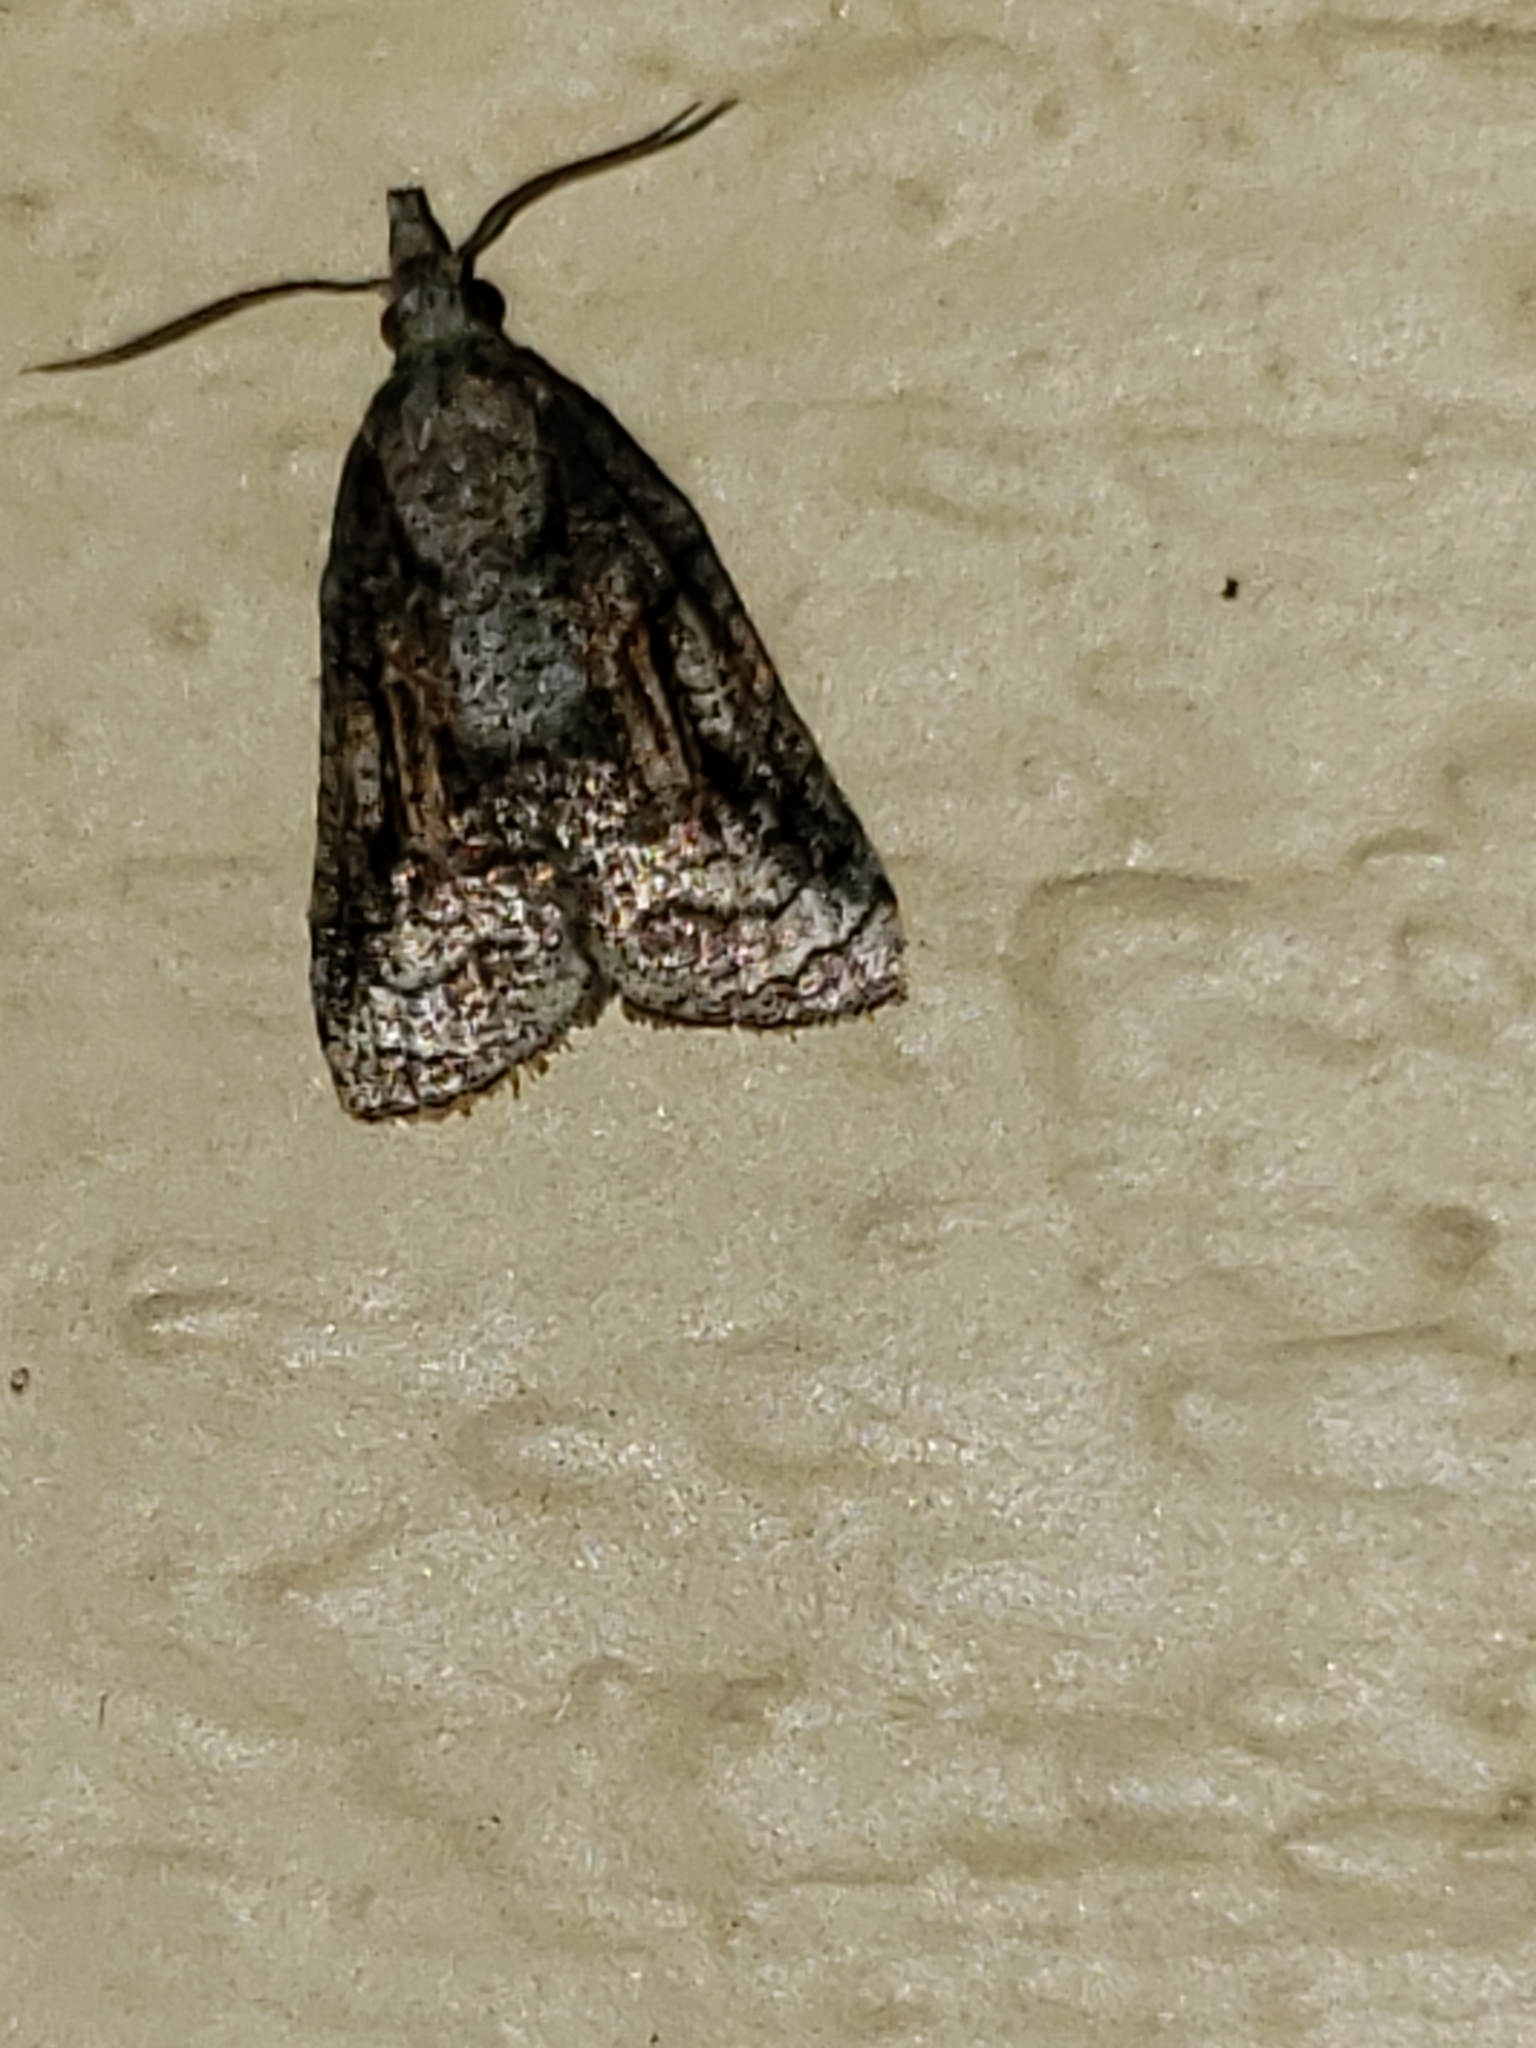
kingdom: Animalia
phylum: Arthropoda
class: Insecta
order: Lepidoptera
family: Tortricidae
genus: Platynota
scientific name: Platynota idaeusalis
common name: Tufted apple bud moth
